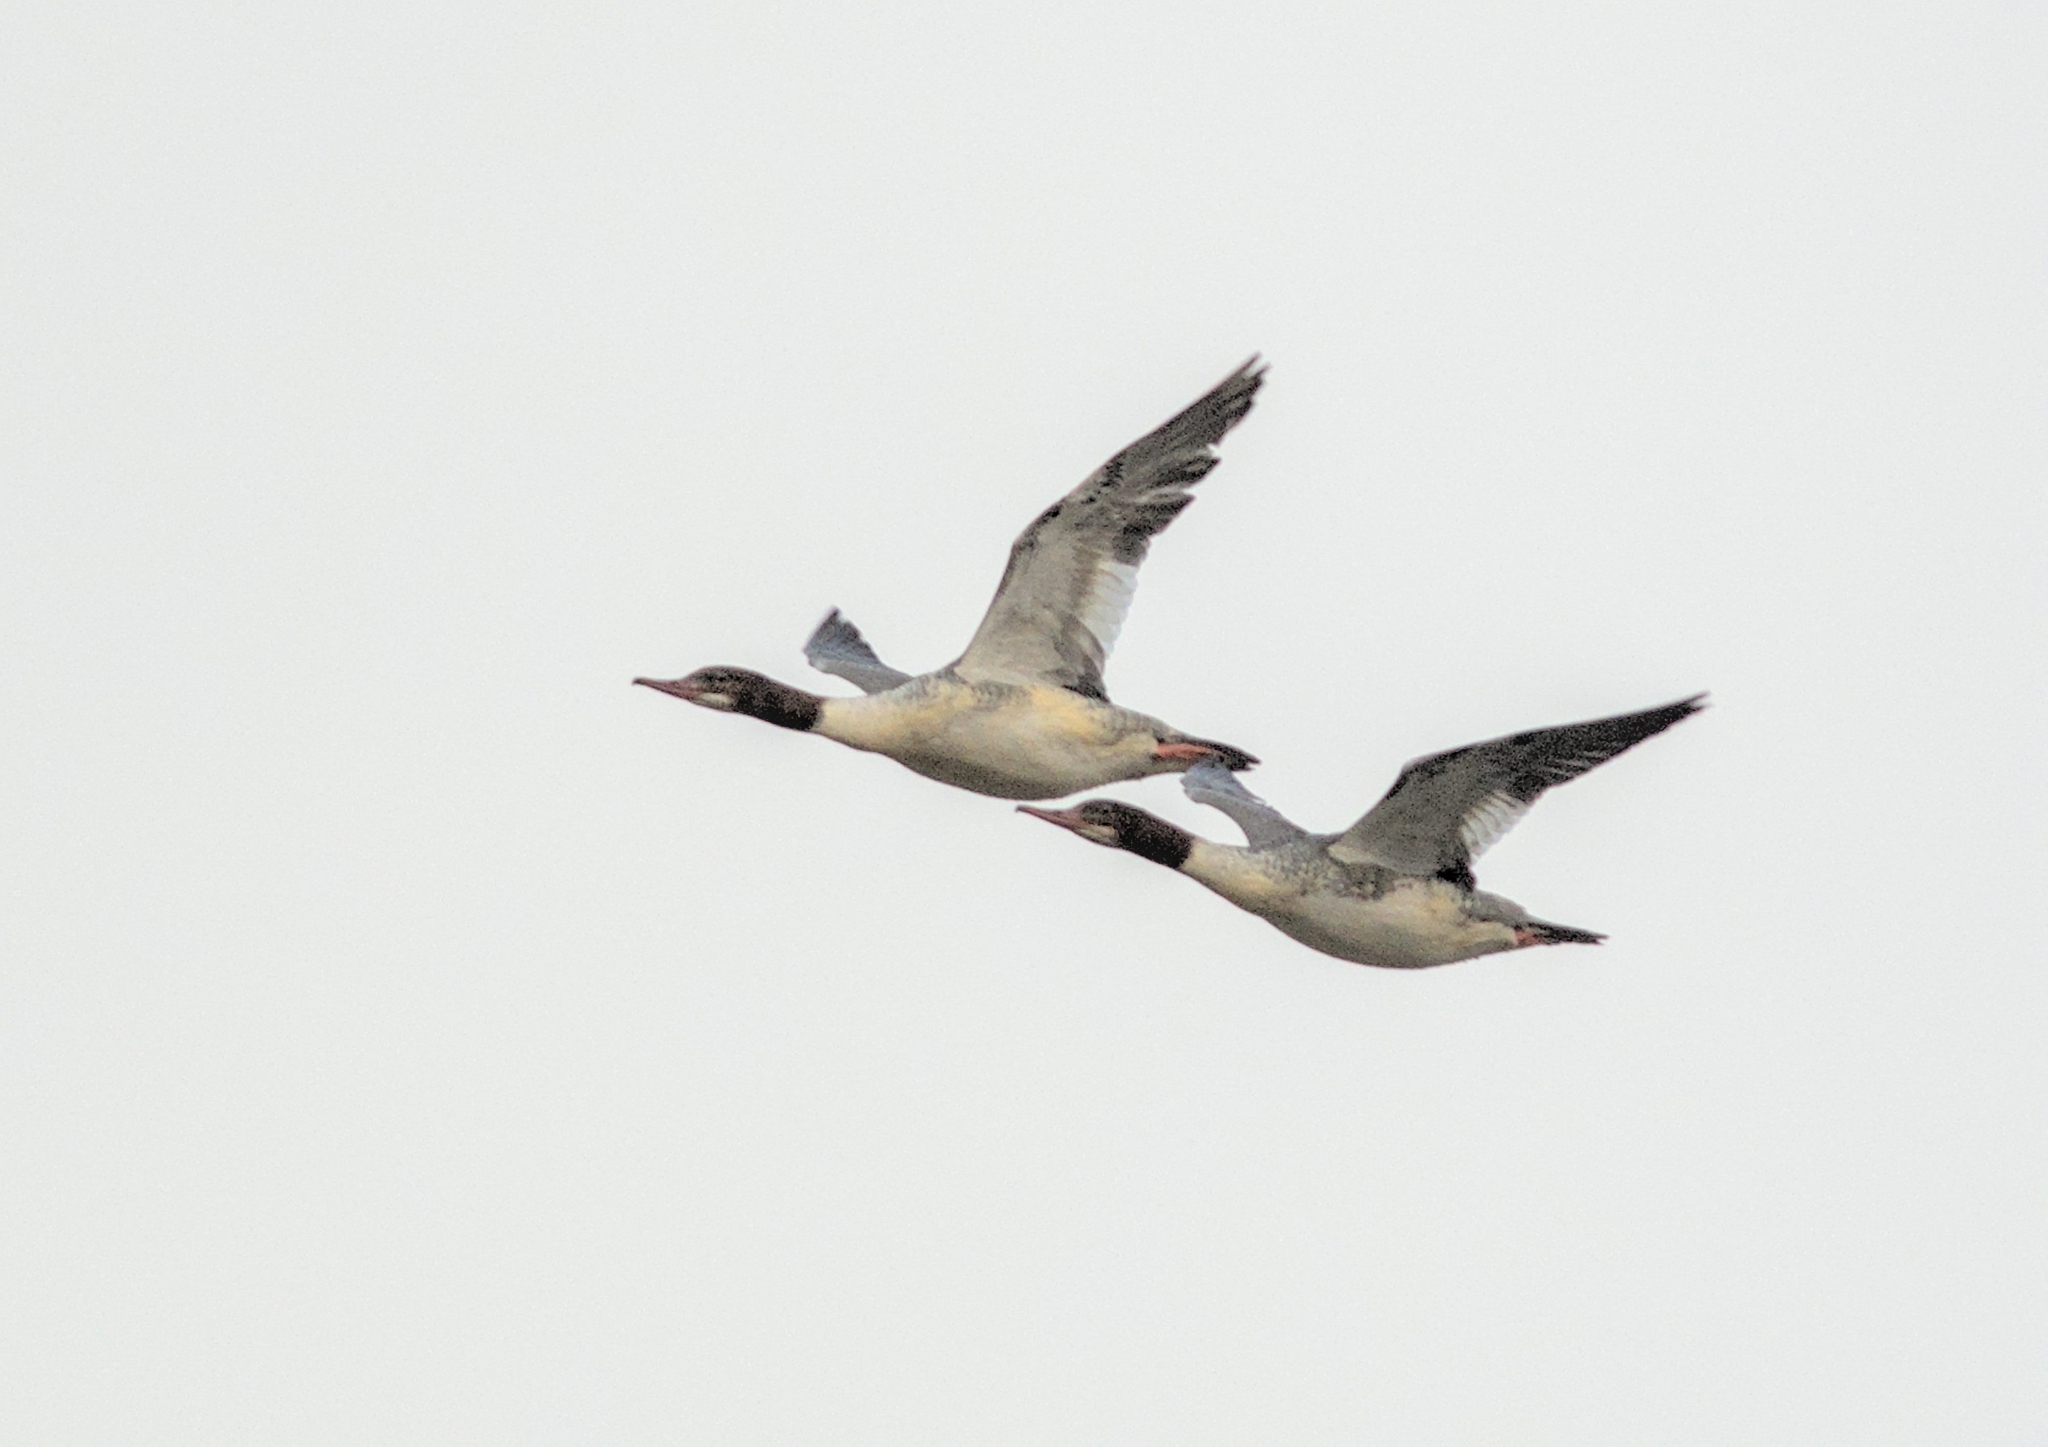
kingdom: Animalia
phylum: Chordata
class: Aves
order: Anseriformes
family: Anatidae
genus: Mergus
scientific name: Mergus merganser
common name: Common merganser
